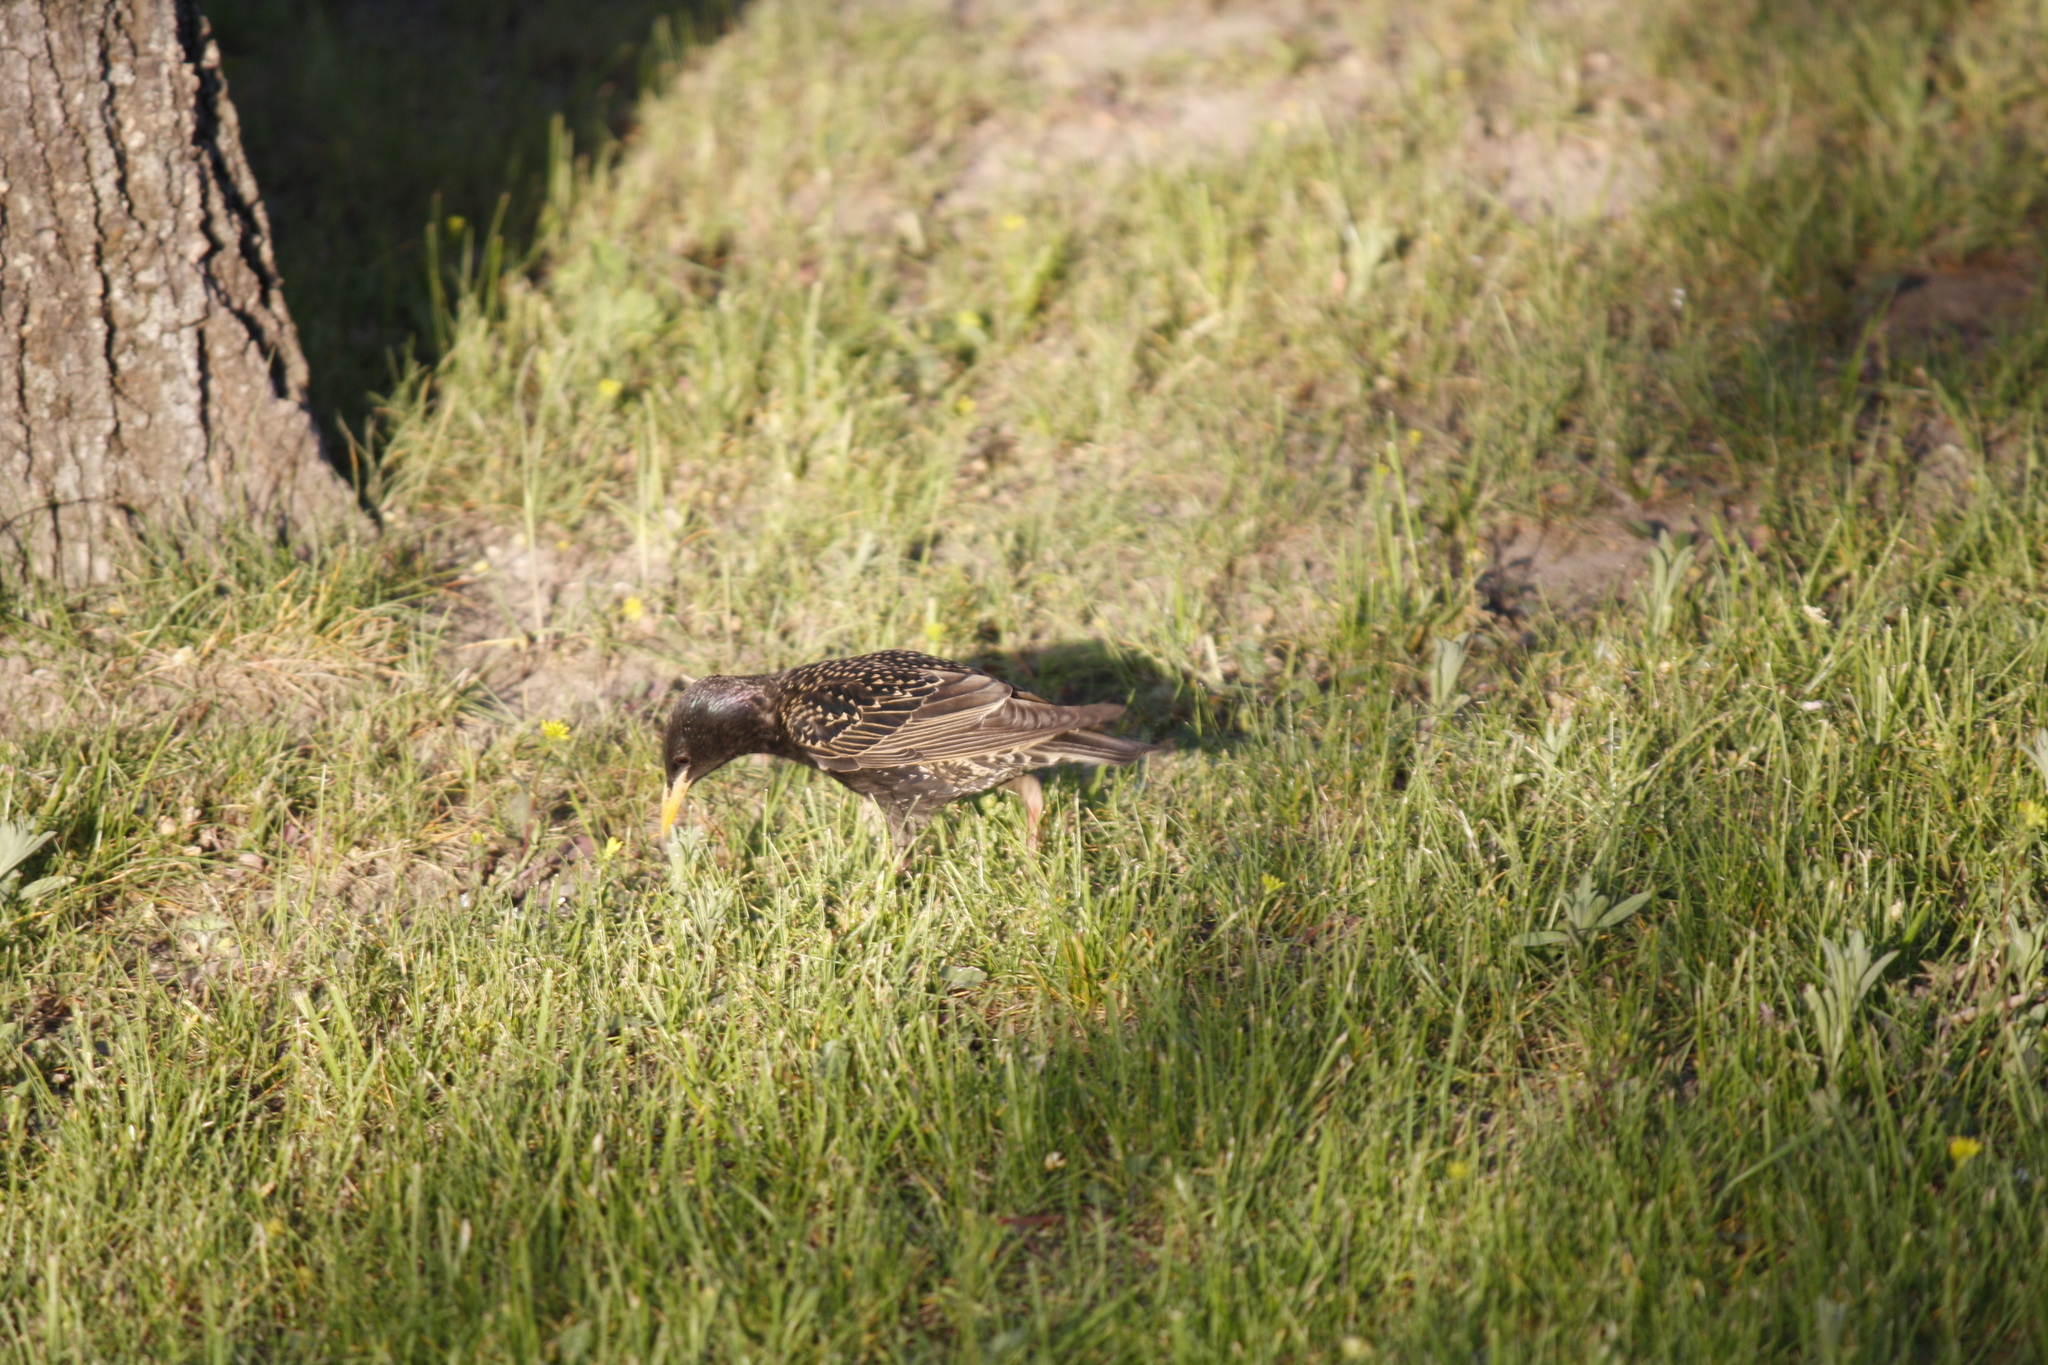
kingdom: Animalia
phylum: Chordata
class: Aves
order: Passeriformes
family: Sturnidae
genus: Sturnus
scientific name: Sturnus vulgaris
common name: Common starling
